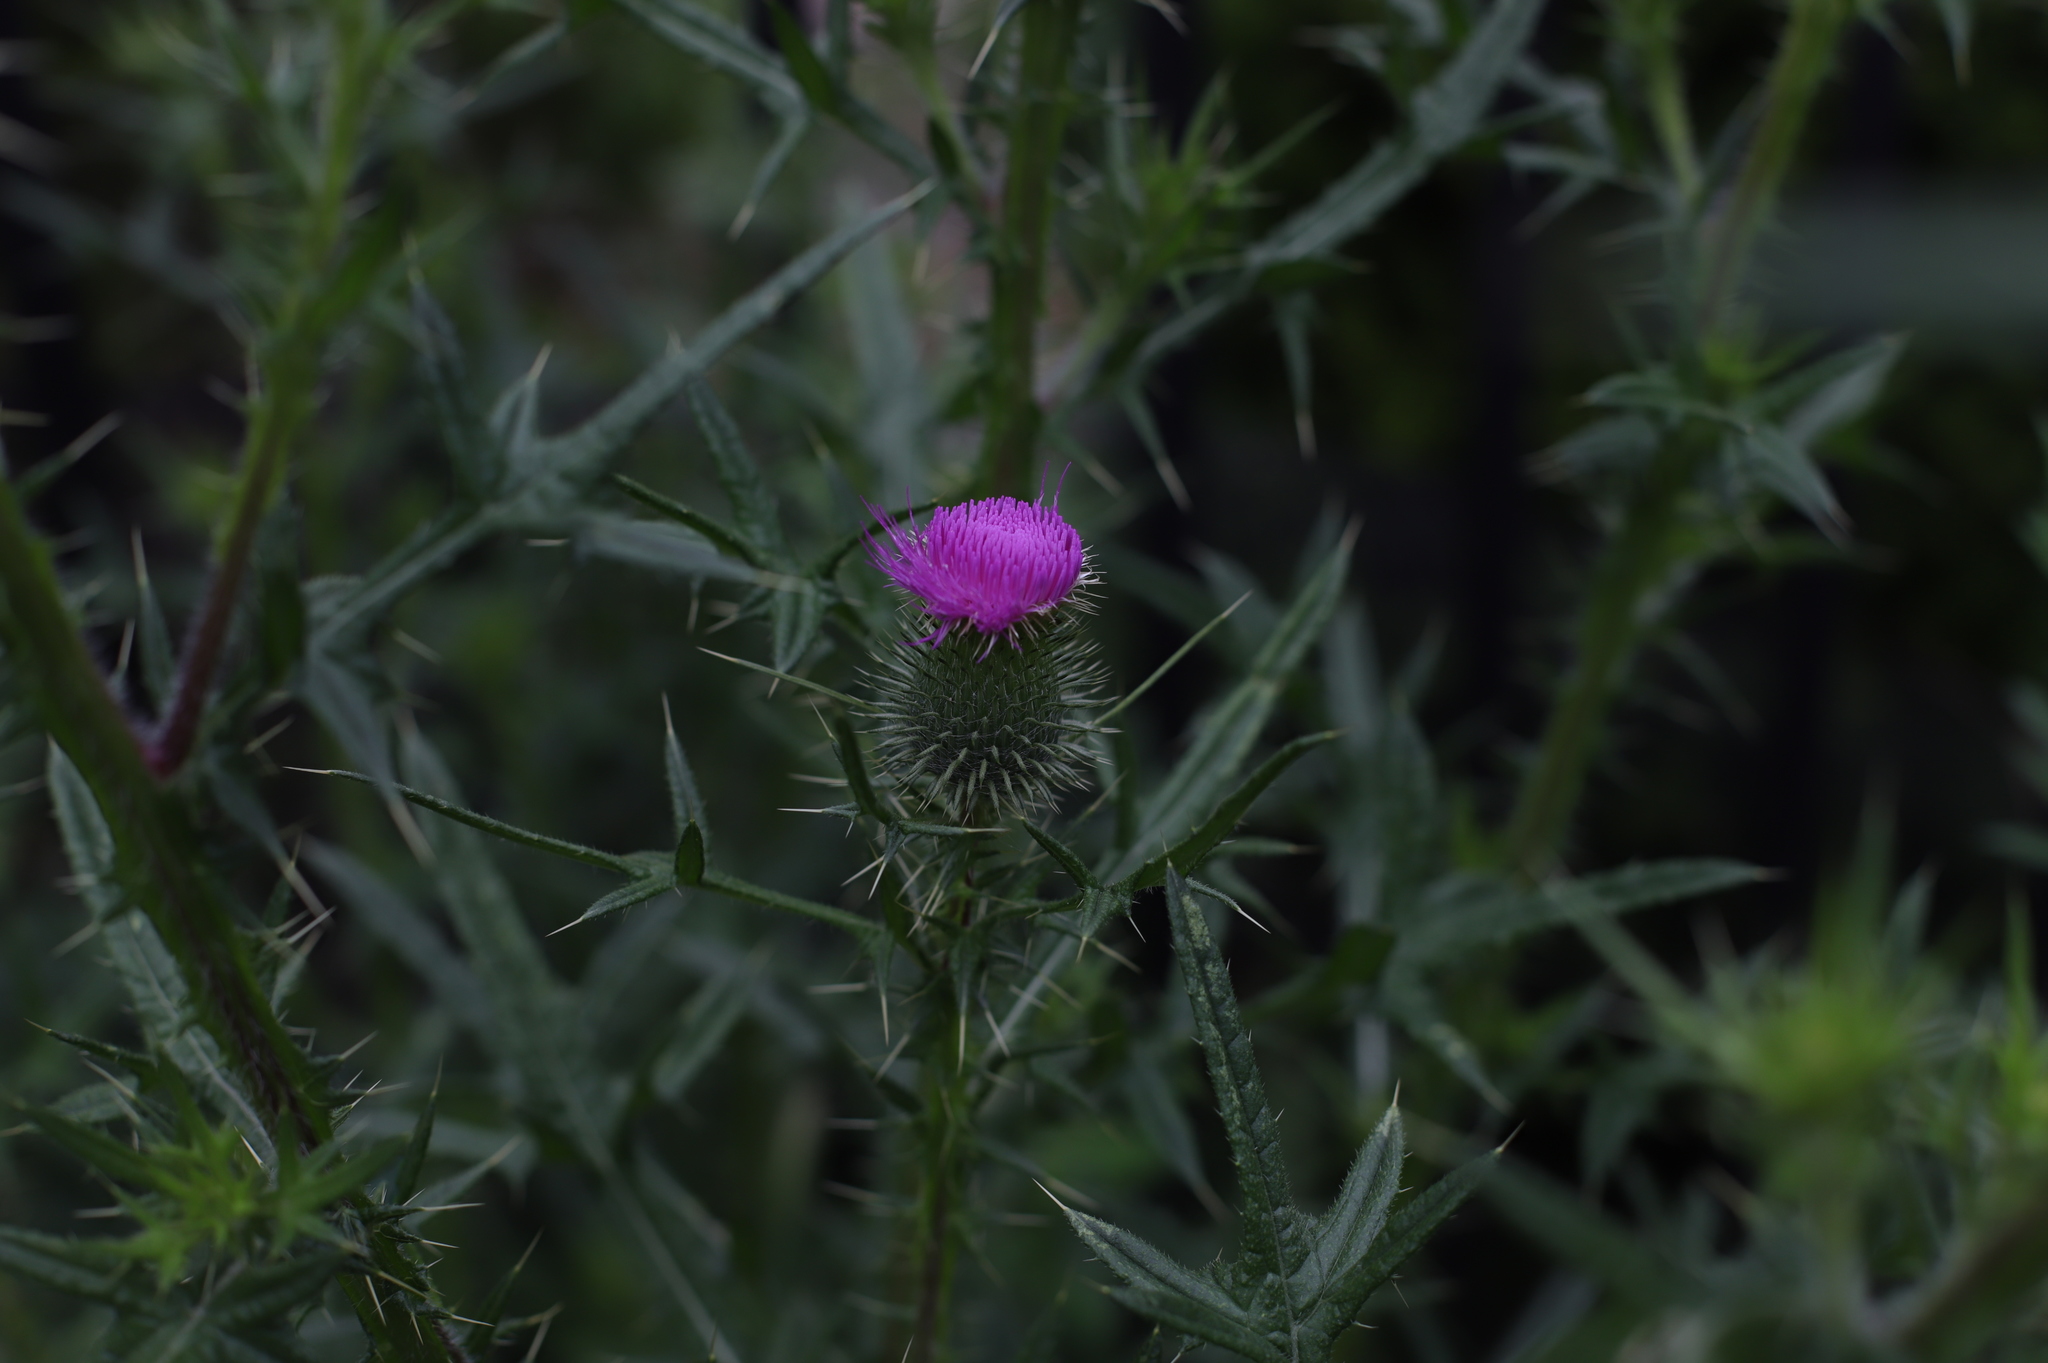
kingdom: Plantae
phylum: Tracheophyta
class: Magnoliopsida
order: Asterales
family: Asteraceae
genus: Cirsium
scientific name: Cirsium vulgare
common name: Bull thistle
